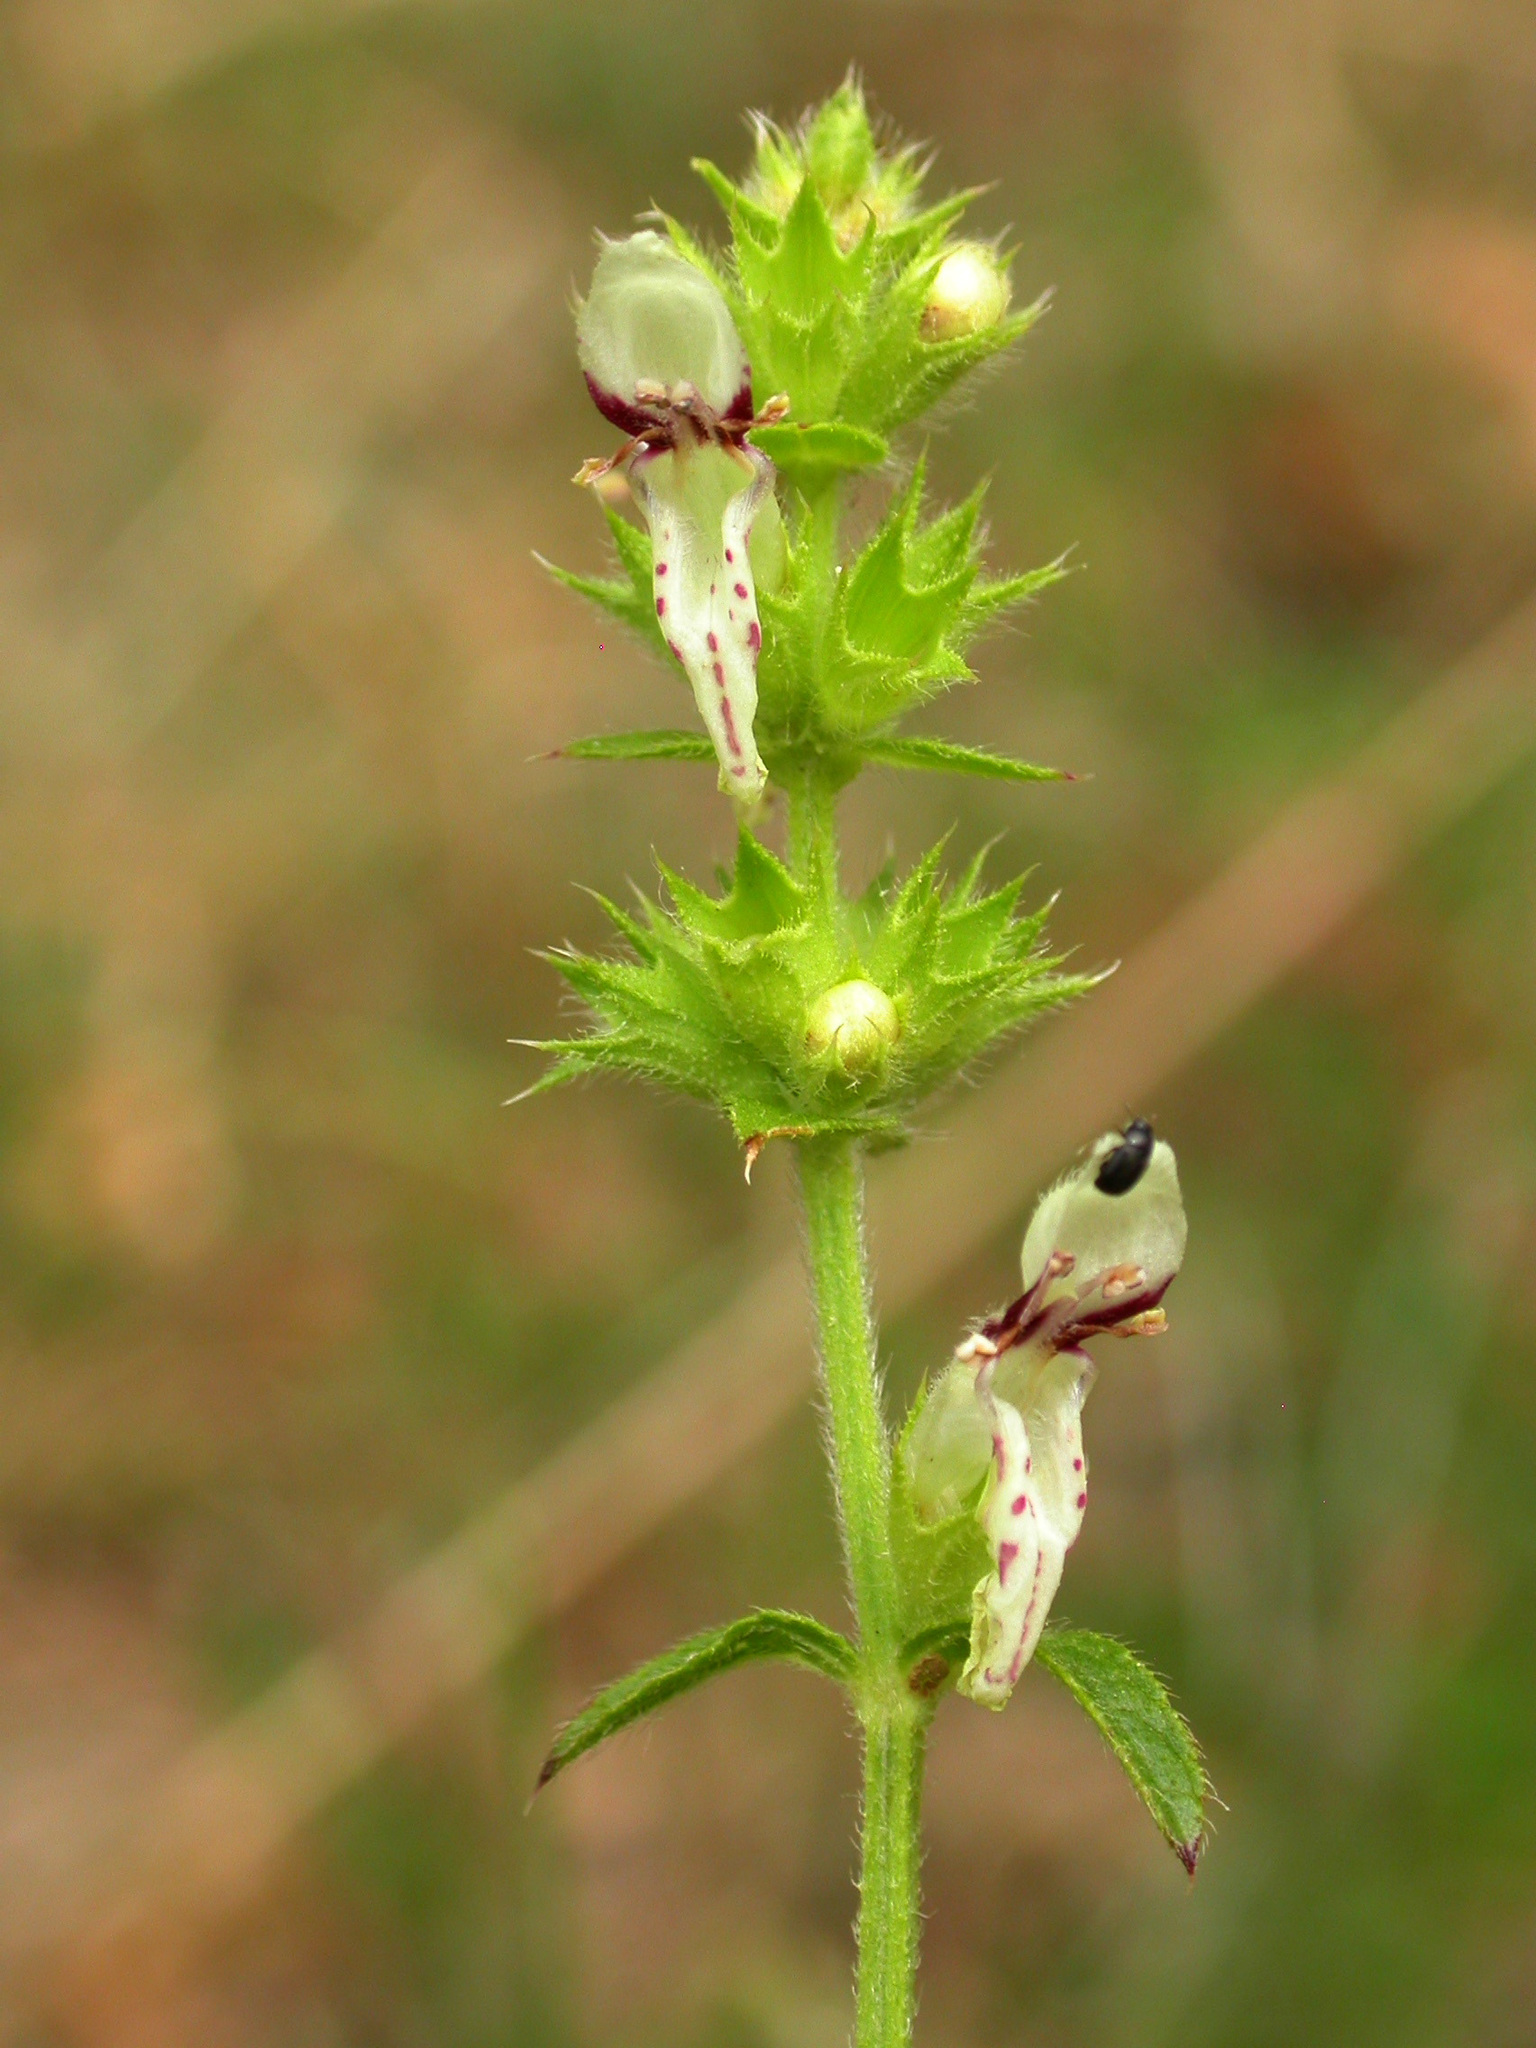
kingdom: Plantae
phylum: Tracheophyta
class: Magnoliopsida
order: Lamiales
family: Lamiaceae
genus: Stachys
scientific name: Stachys recta
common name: Perennial yellow-woundwort
